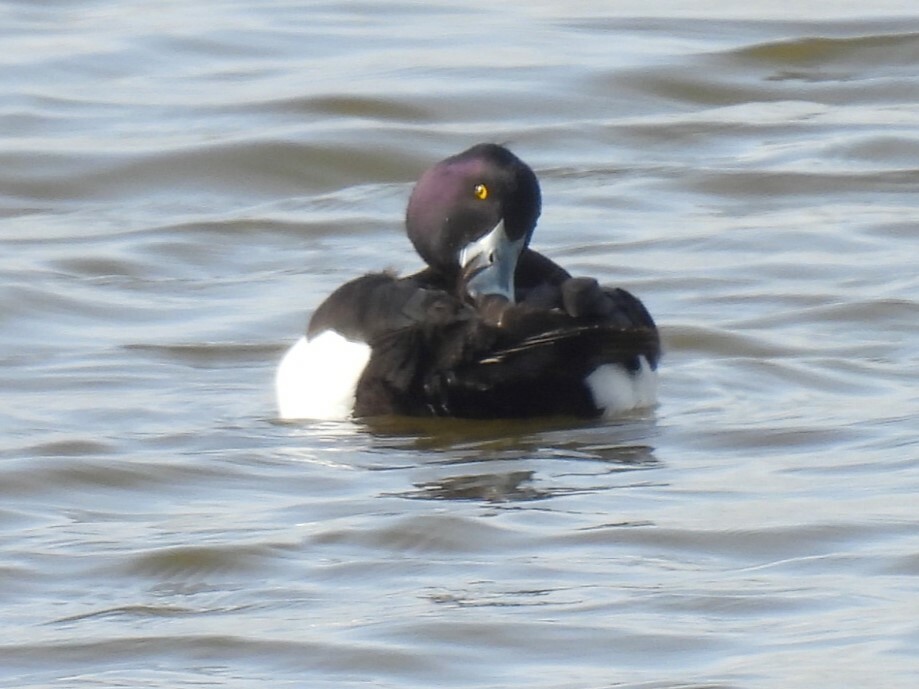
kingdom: Animalia
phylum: Chordata
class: Aves
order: Anseriformes
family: Anatidae
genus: Aythya
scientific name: Aythya fuligula
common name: Tufted duck
